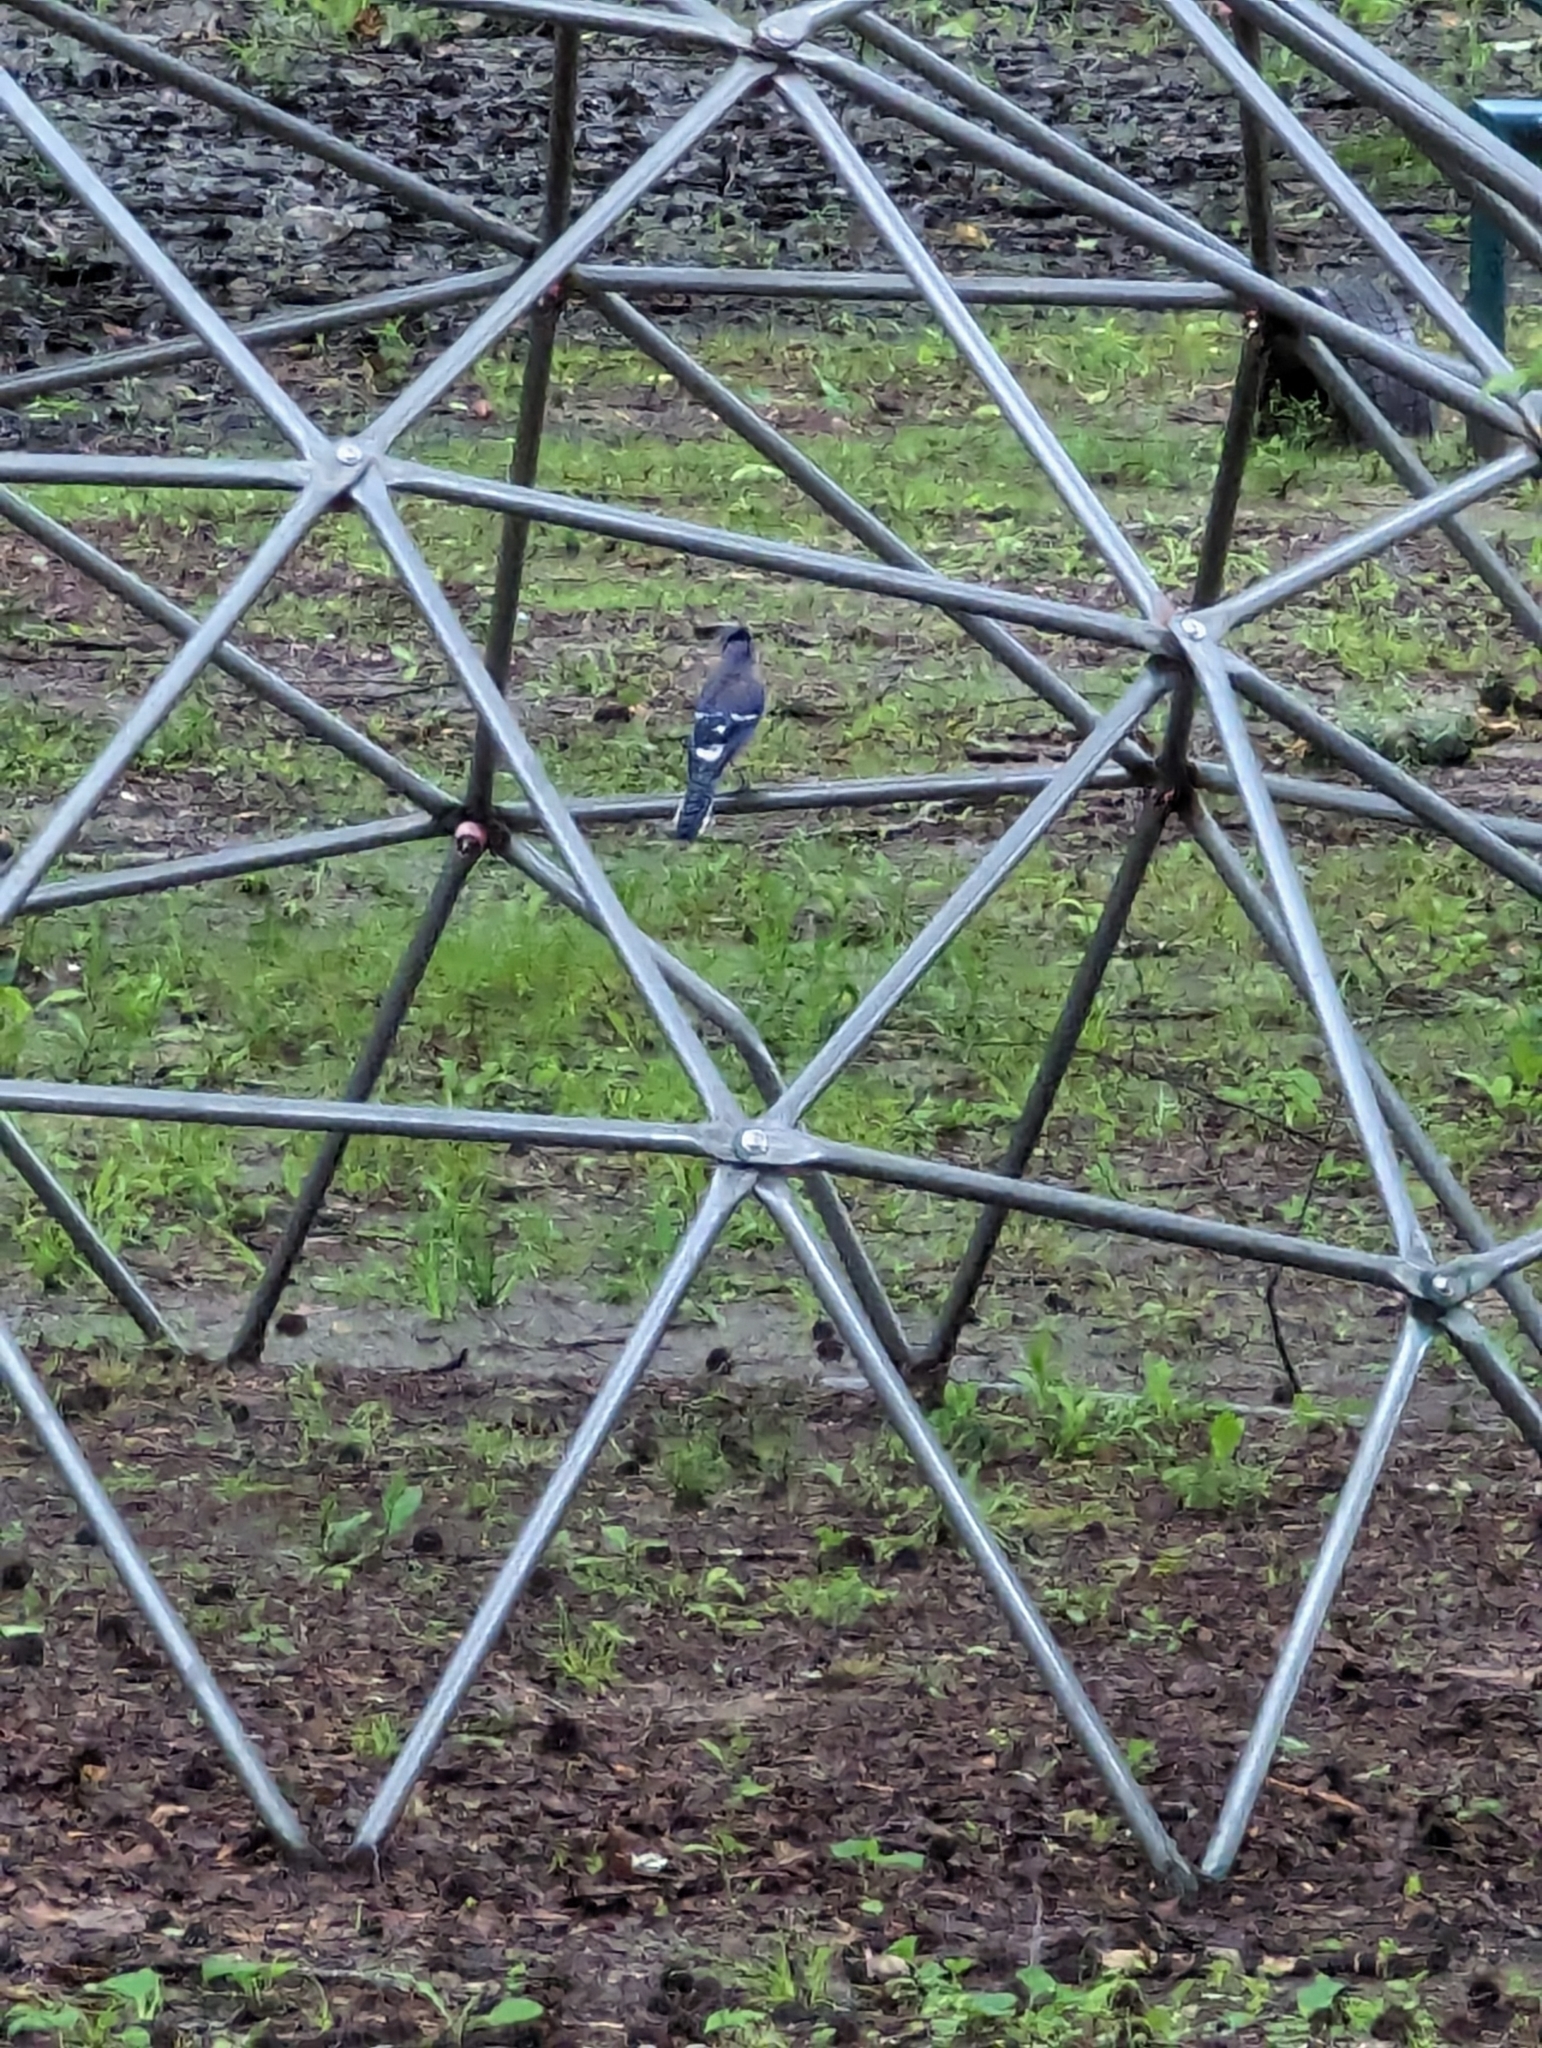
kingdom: Animalia
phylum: Chordata
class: Aves
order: Passeriformes
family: Corvidae
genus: Cyanocitta
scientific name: Cyanocitta cristata
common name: Blue jay
